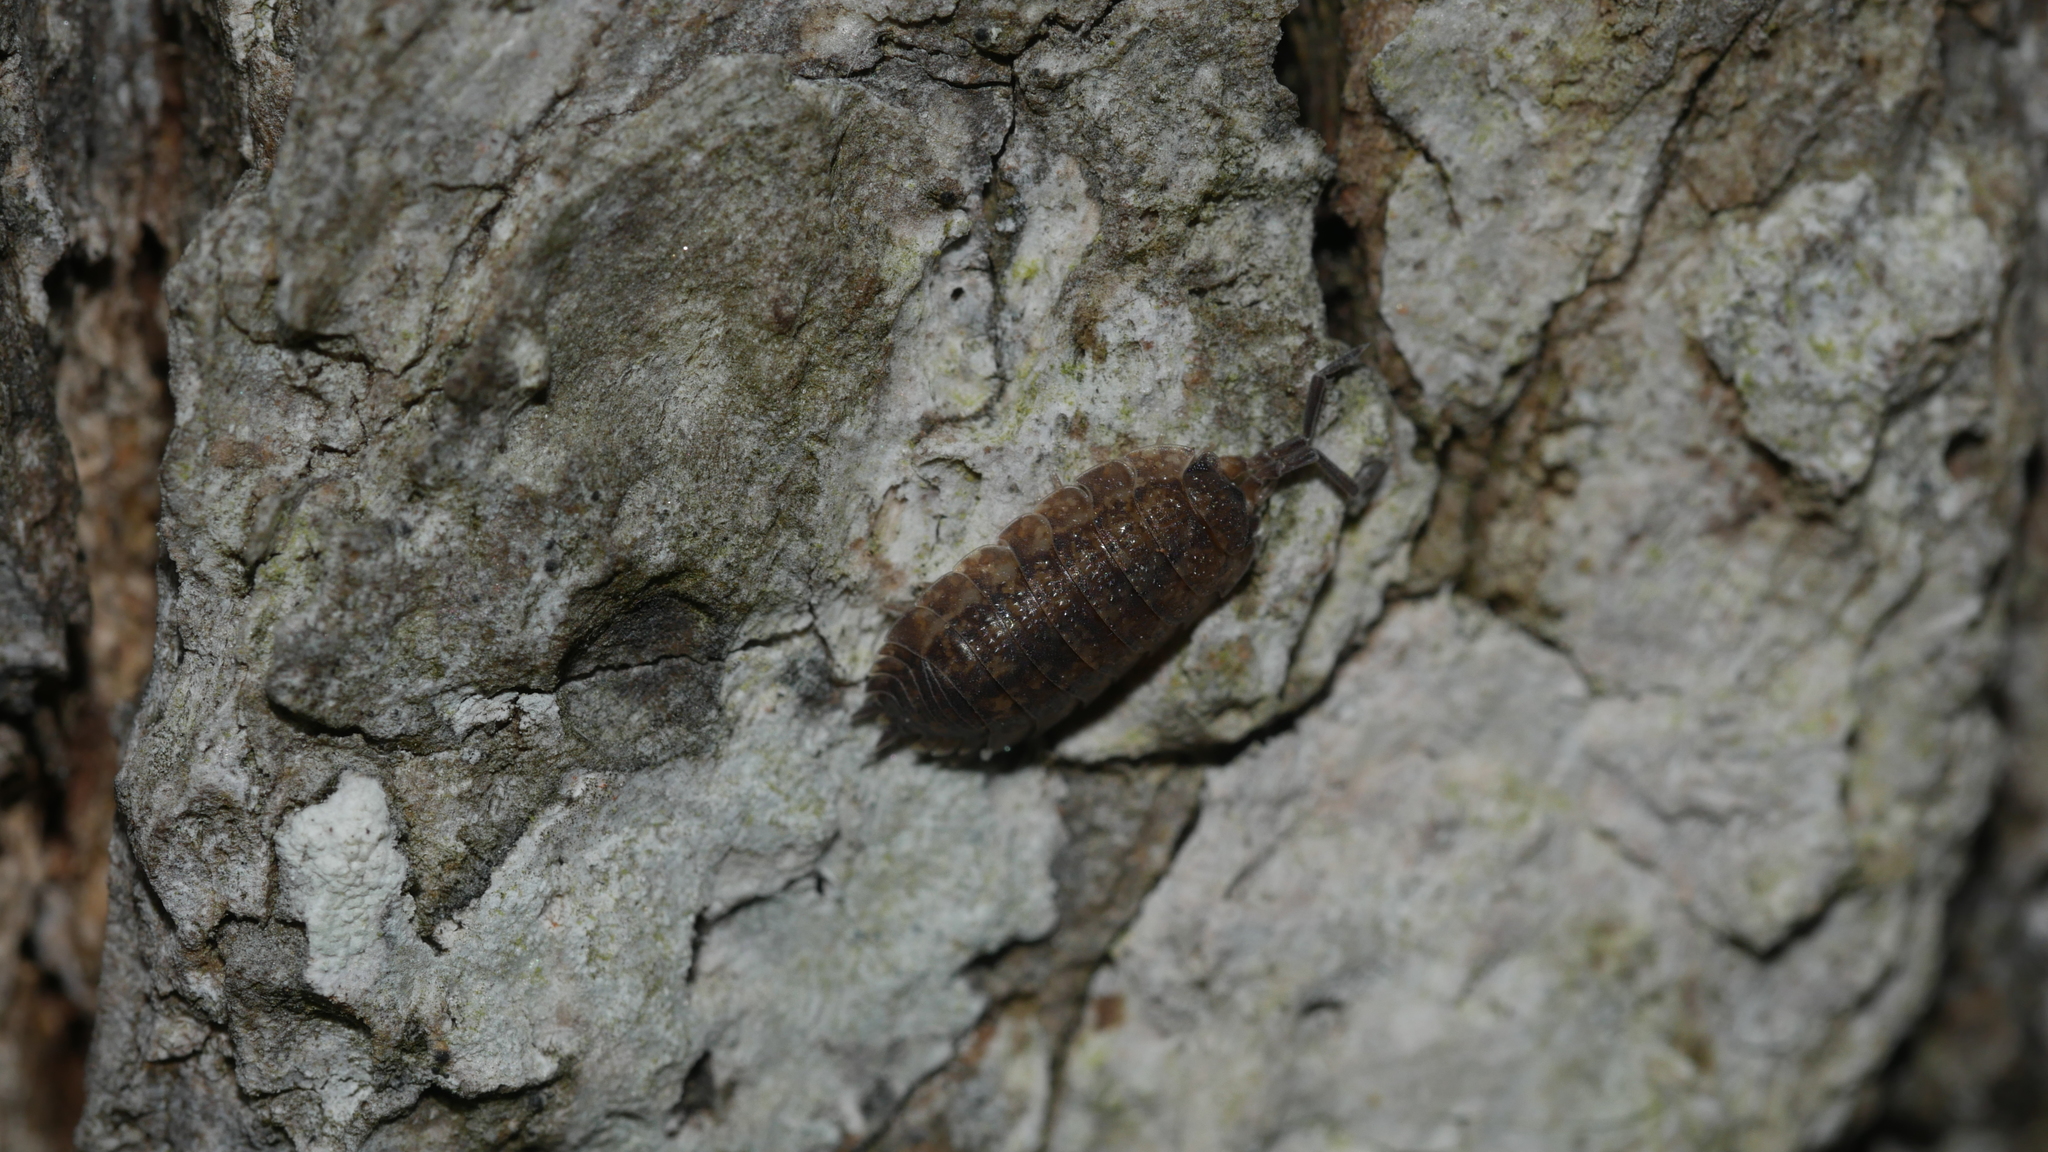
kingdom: Animalia
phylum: Arthropoda
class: Malacostraca
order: Isopoda
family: Porcellionidae
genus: Porcellio
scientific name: Porcellio scaber
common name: Common rough woodlouse
